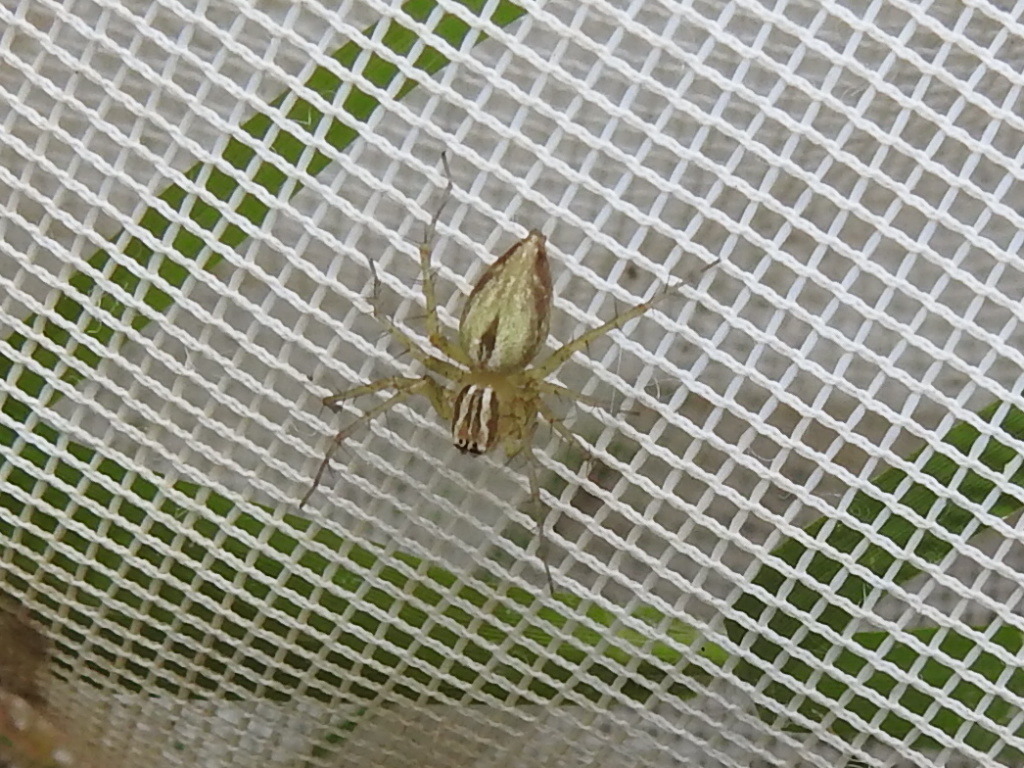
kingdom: Animalia
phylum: Arthropoda
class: Arachnida
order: Araneae
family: Oxyopidae
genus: Oxyopes
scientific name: Oxyopes salticus
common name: Lynx spiders
